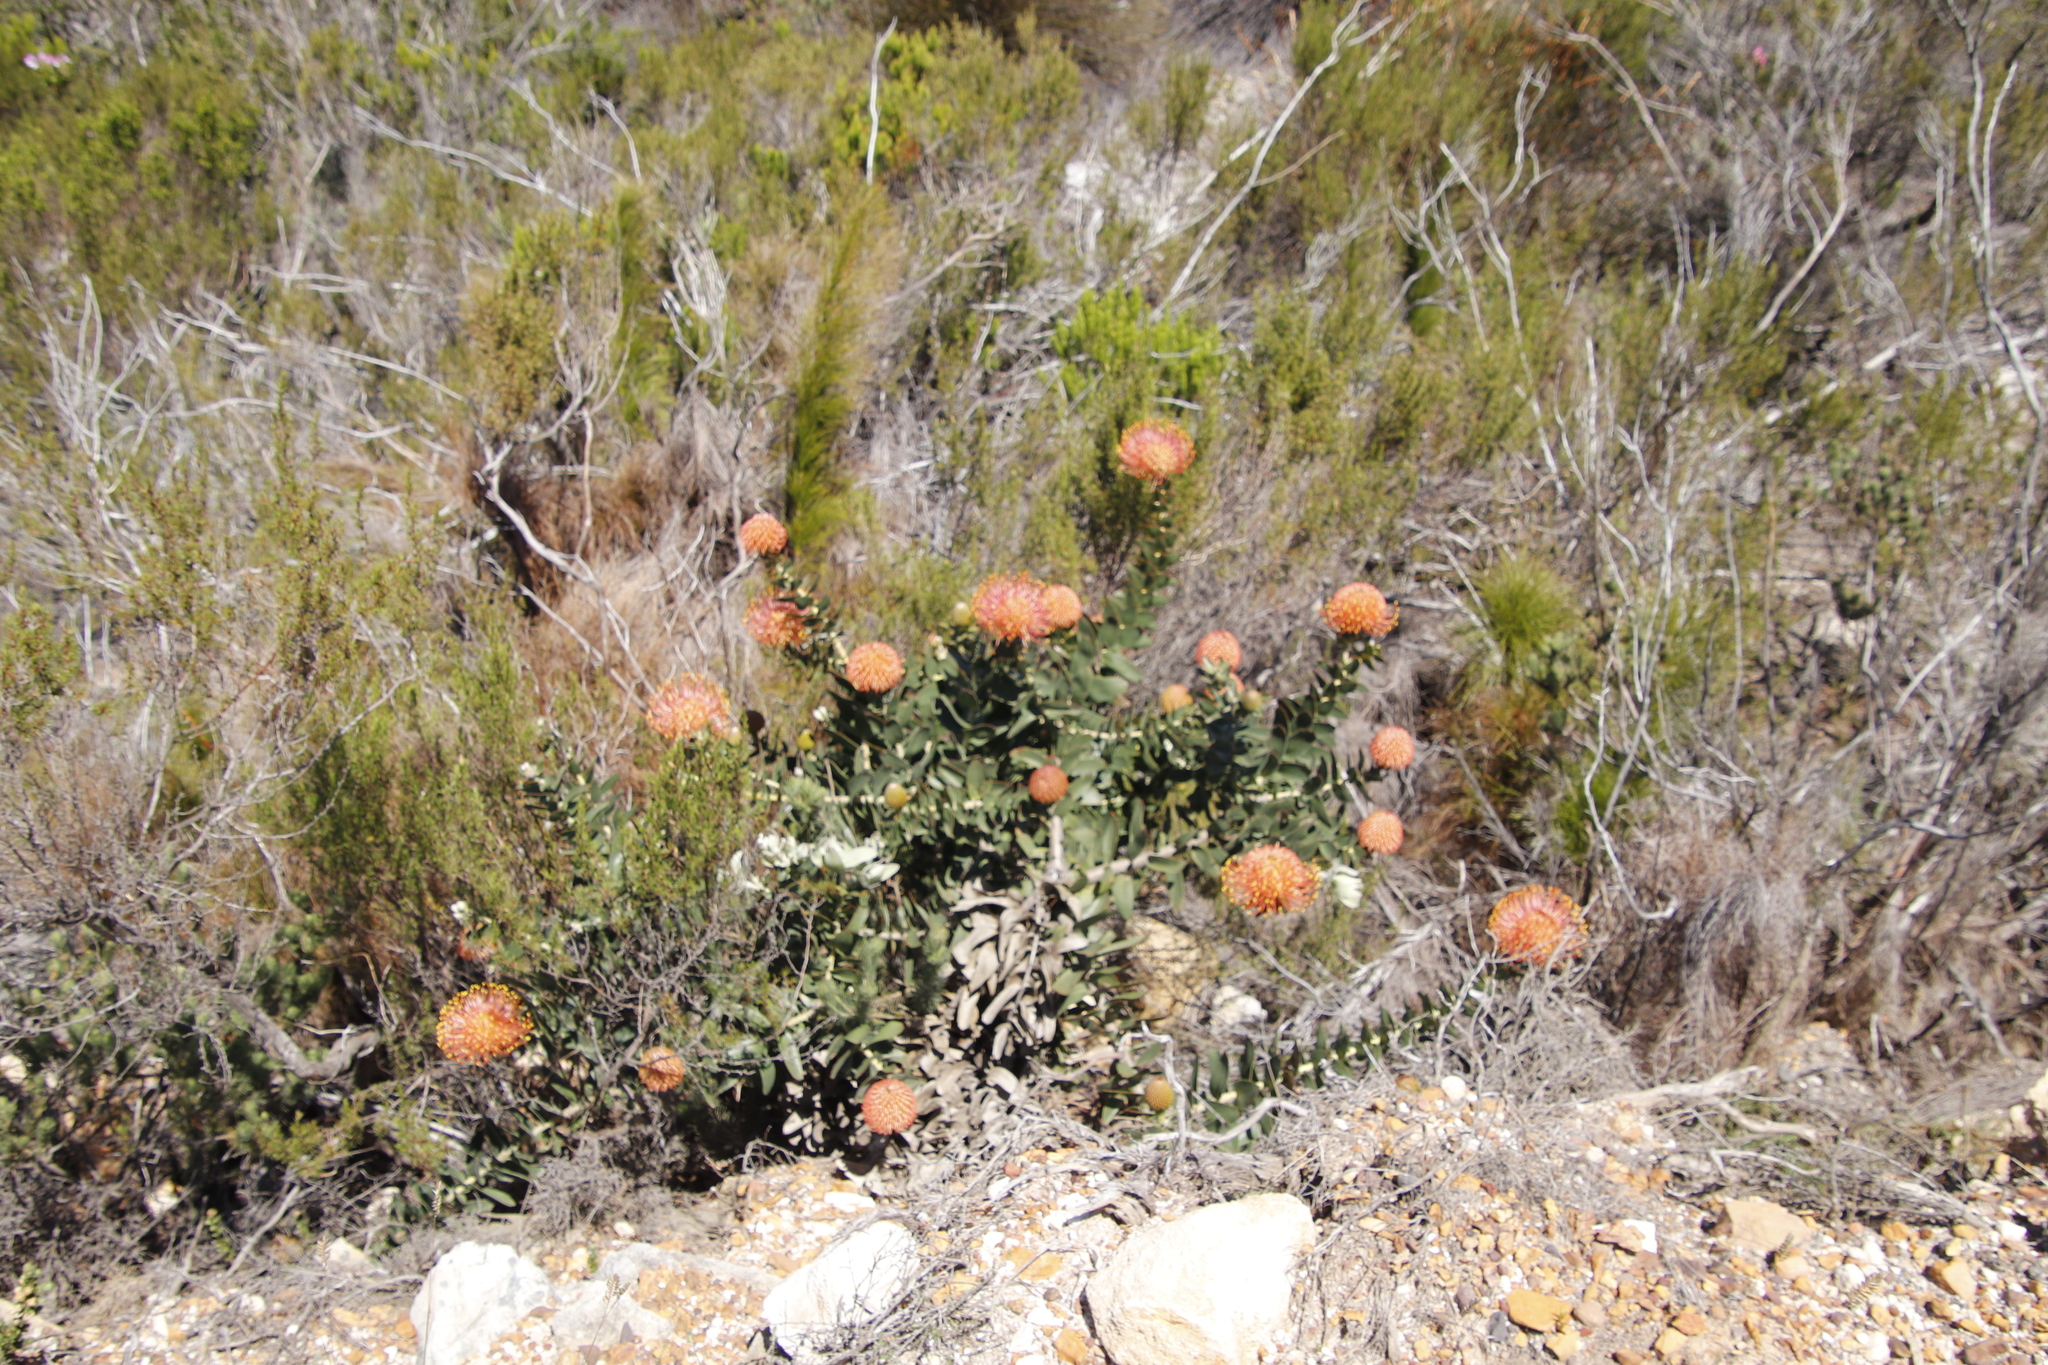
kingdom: Plantae
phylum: Tracheophyta
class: Magnoliopsida
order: Proteales
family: Proteaceae
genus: Leucospermum
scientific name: Leucospermum cordifolium
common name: Red pincushion-protea
